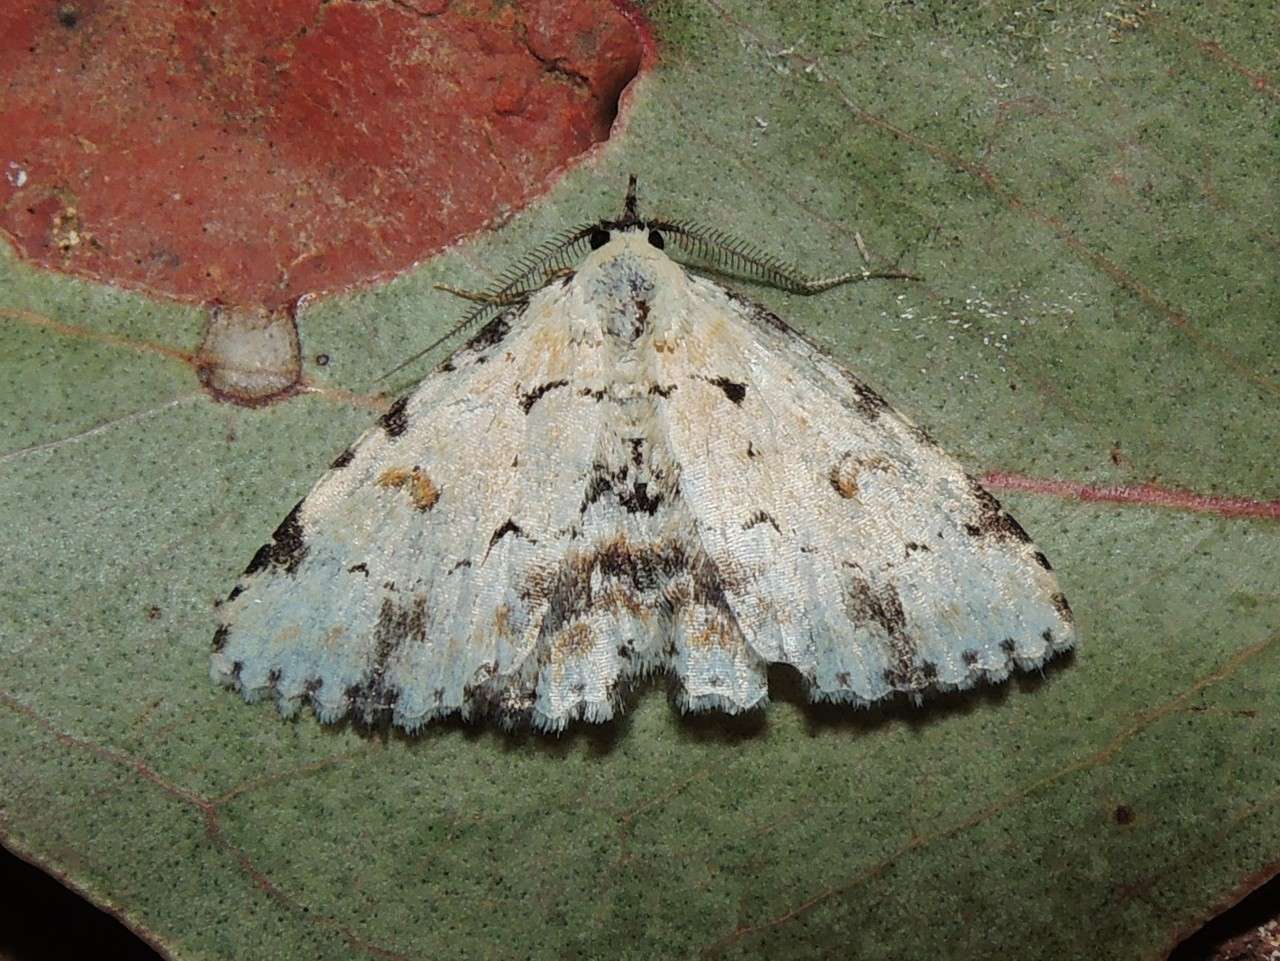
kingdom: Animalia
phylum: Arthropoda
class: Insecta
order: Lepidoptera
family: Erebidae
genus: Sandava
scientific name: Sandava scitisignata
